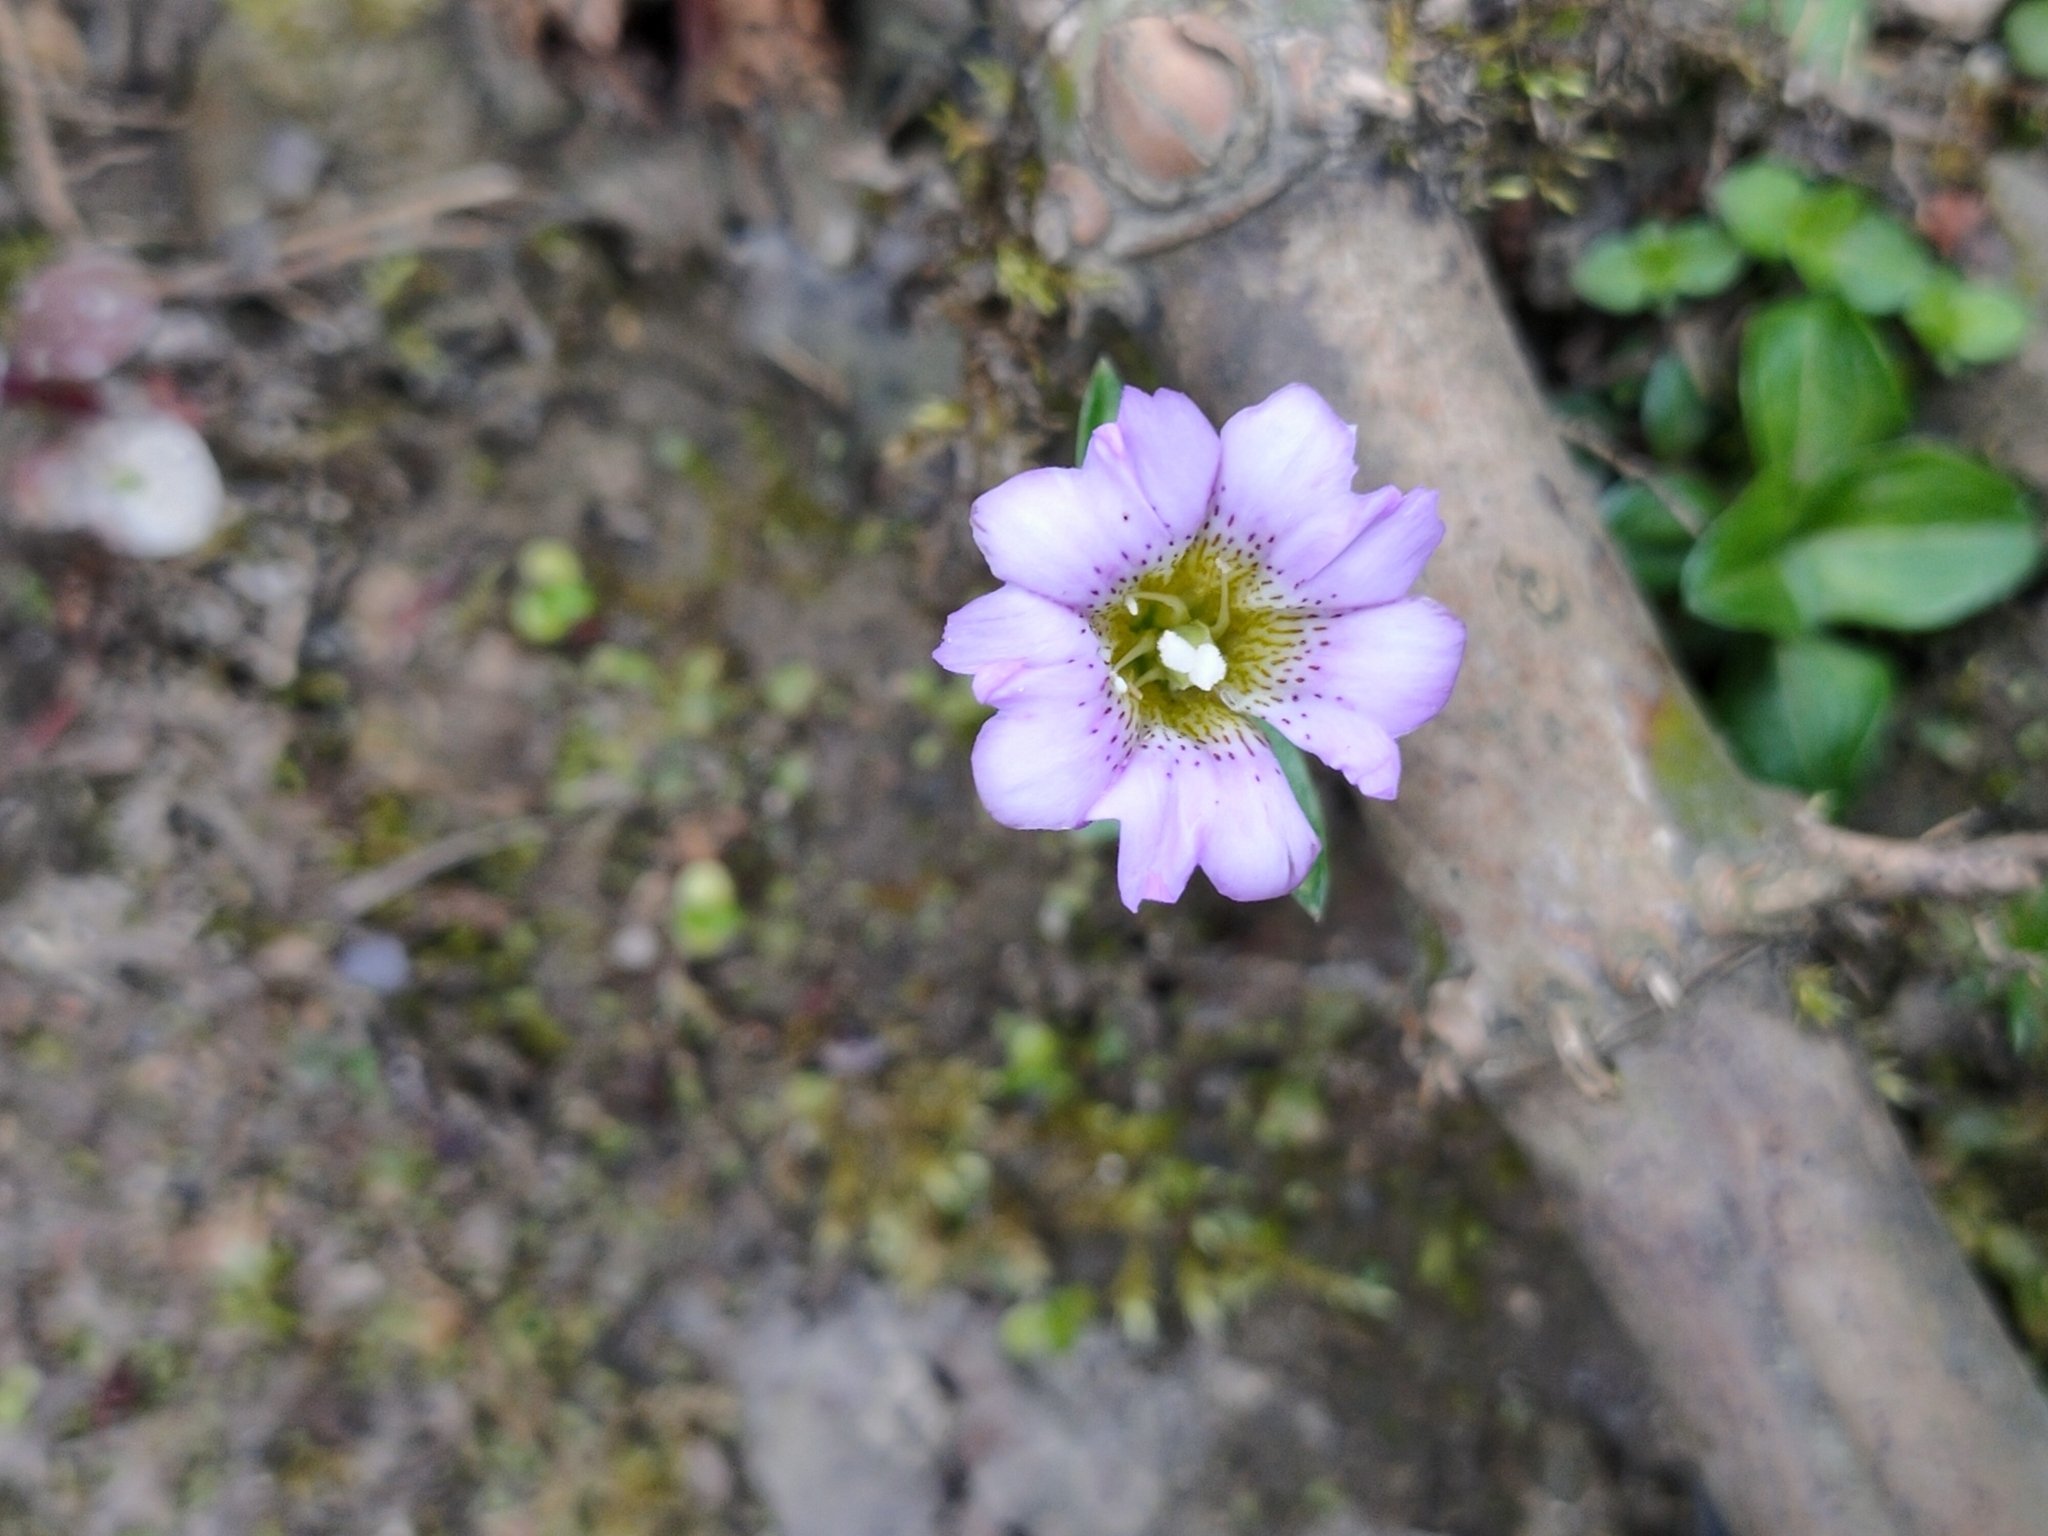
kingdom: Plantae
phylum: Tracheophyta
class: Magnoliopsida
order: Gentianales
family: Gentianaceae
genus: Gentiana
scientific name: Gentiana rubicunda
